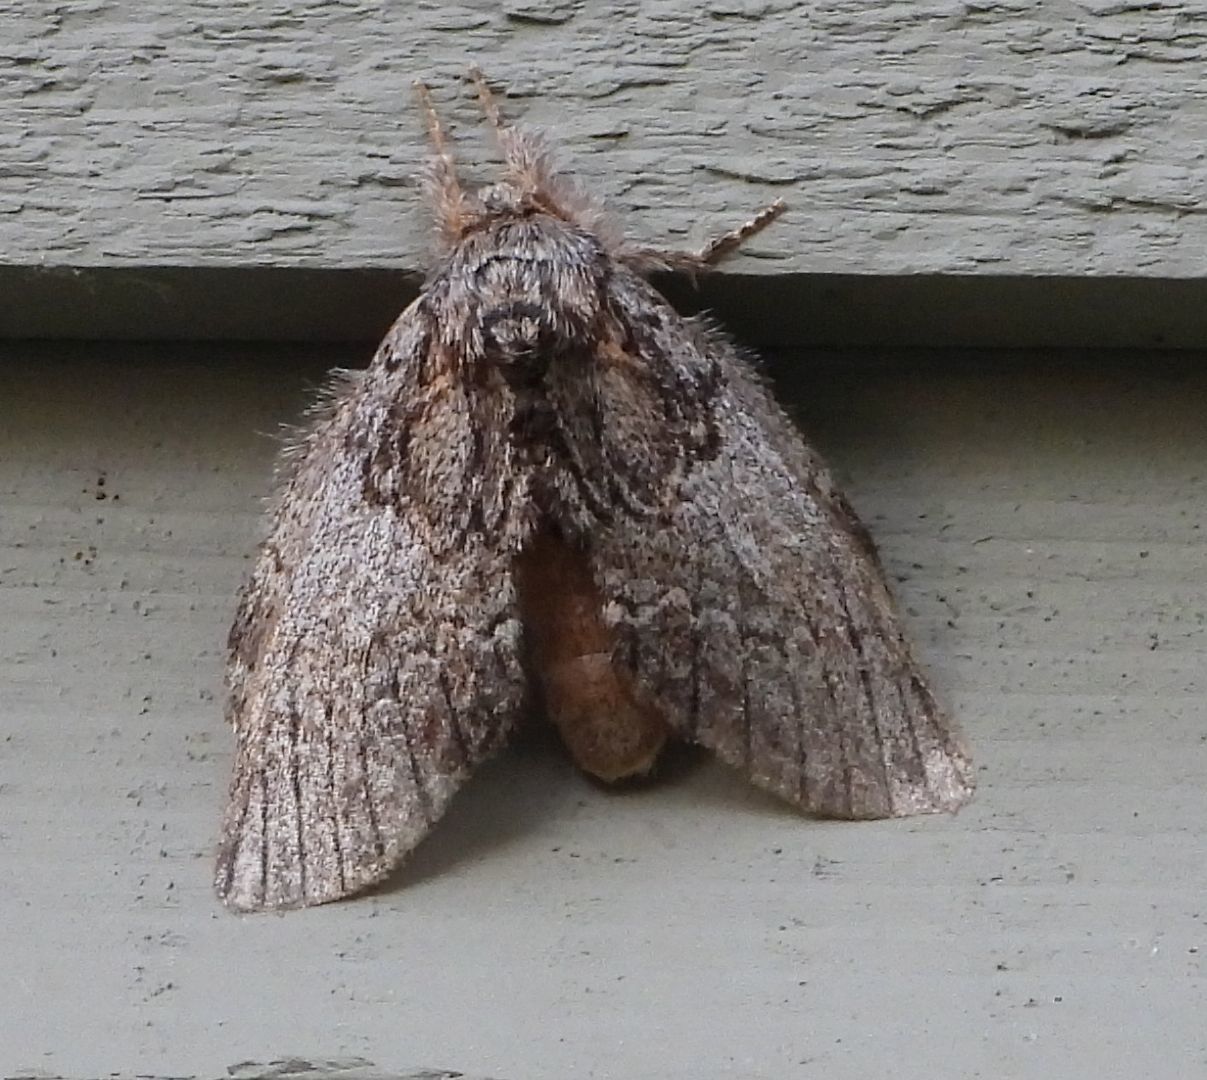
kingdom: Animalia
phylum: Arthropoda
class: Insecta
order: Lepidoptera
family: Notodontidae
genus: Peridea
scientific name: Peridea basitriens
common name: Oval-based prominent
